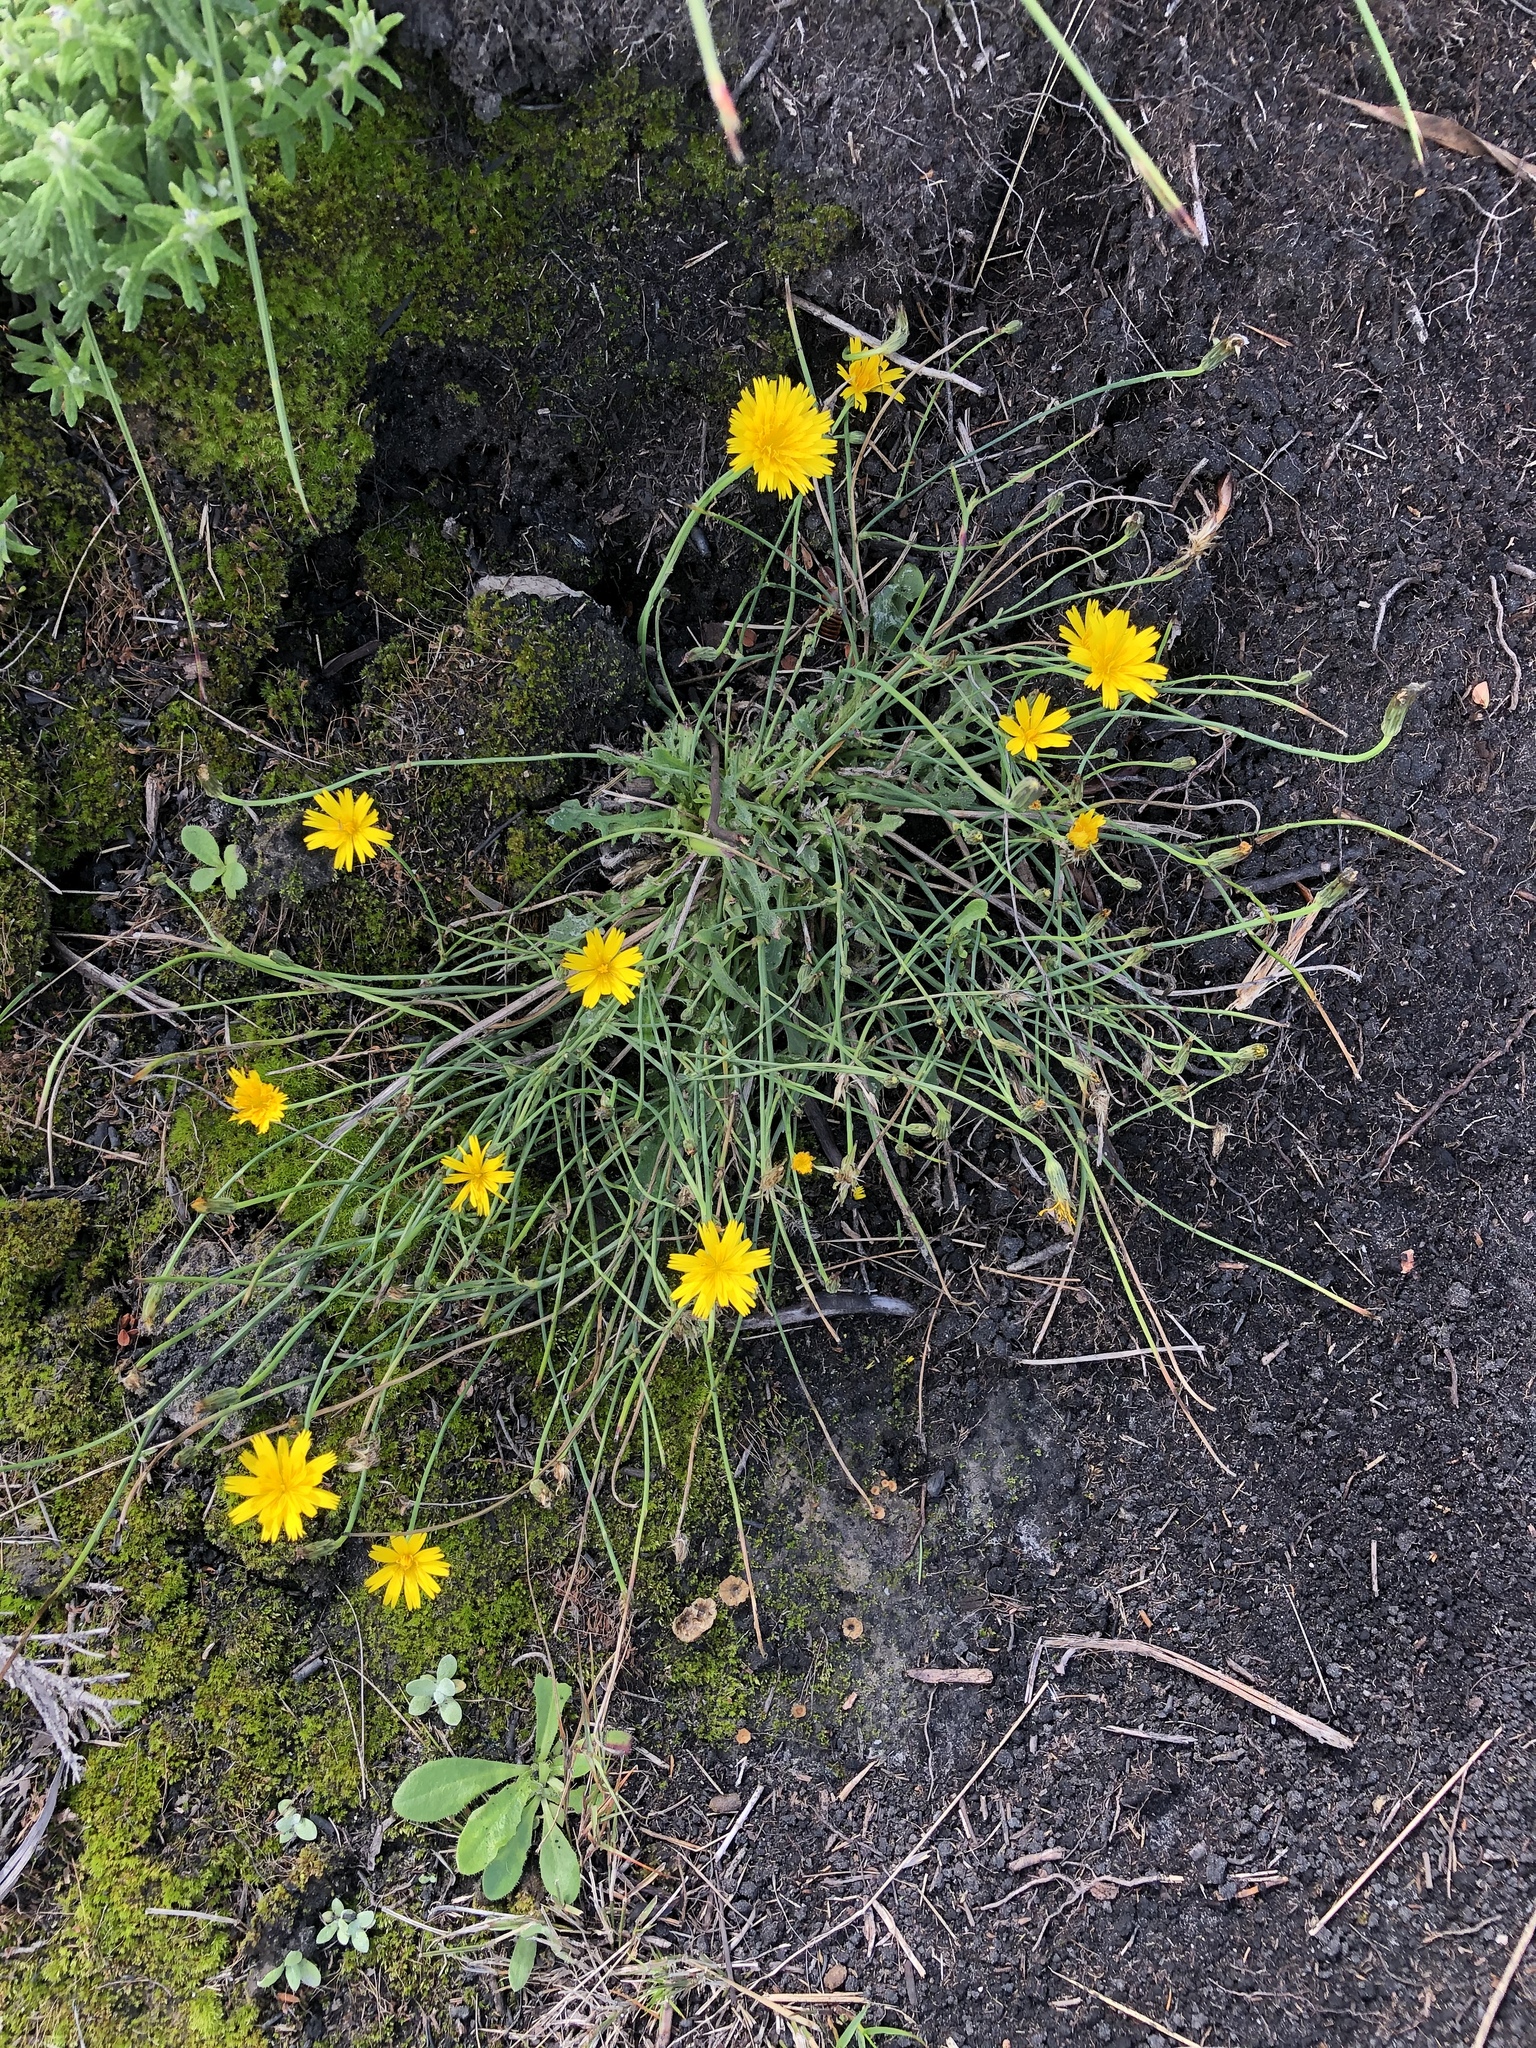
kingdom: Plantae
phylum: Tracheophyta
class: Magnoliopsida
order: Asterales
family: Asteraceae
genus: Hypochaeris
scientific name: Hypochaeris radicata
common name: Flatweed
